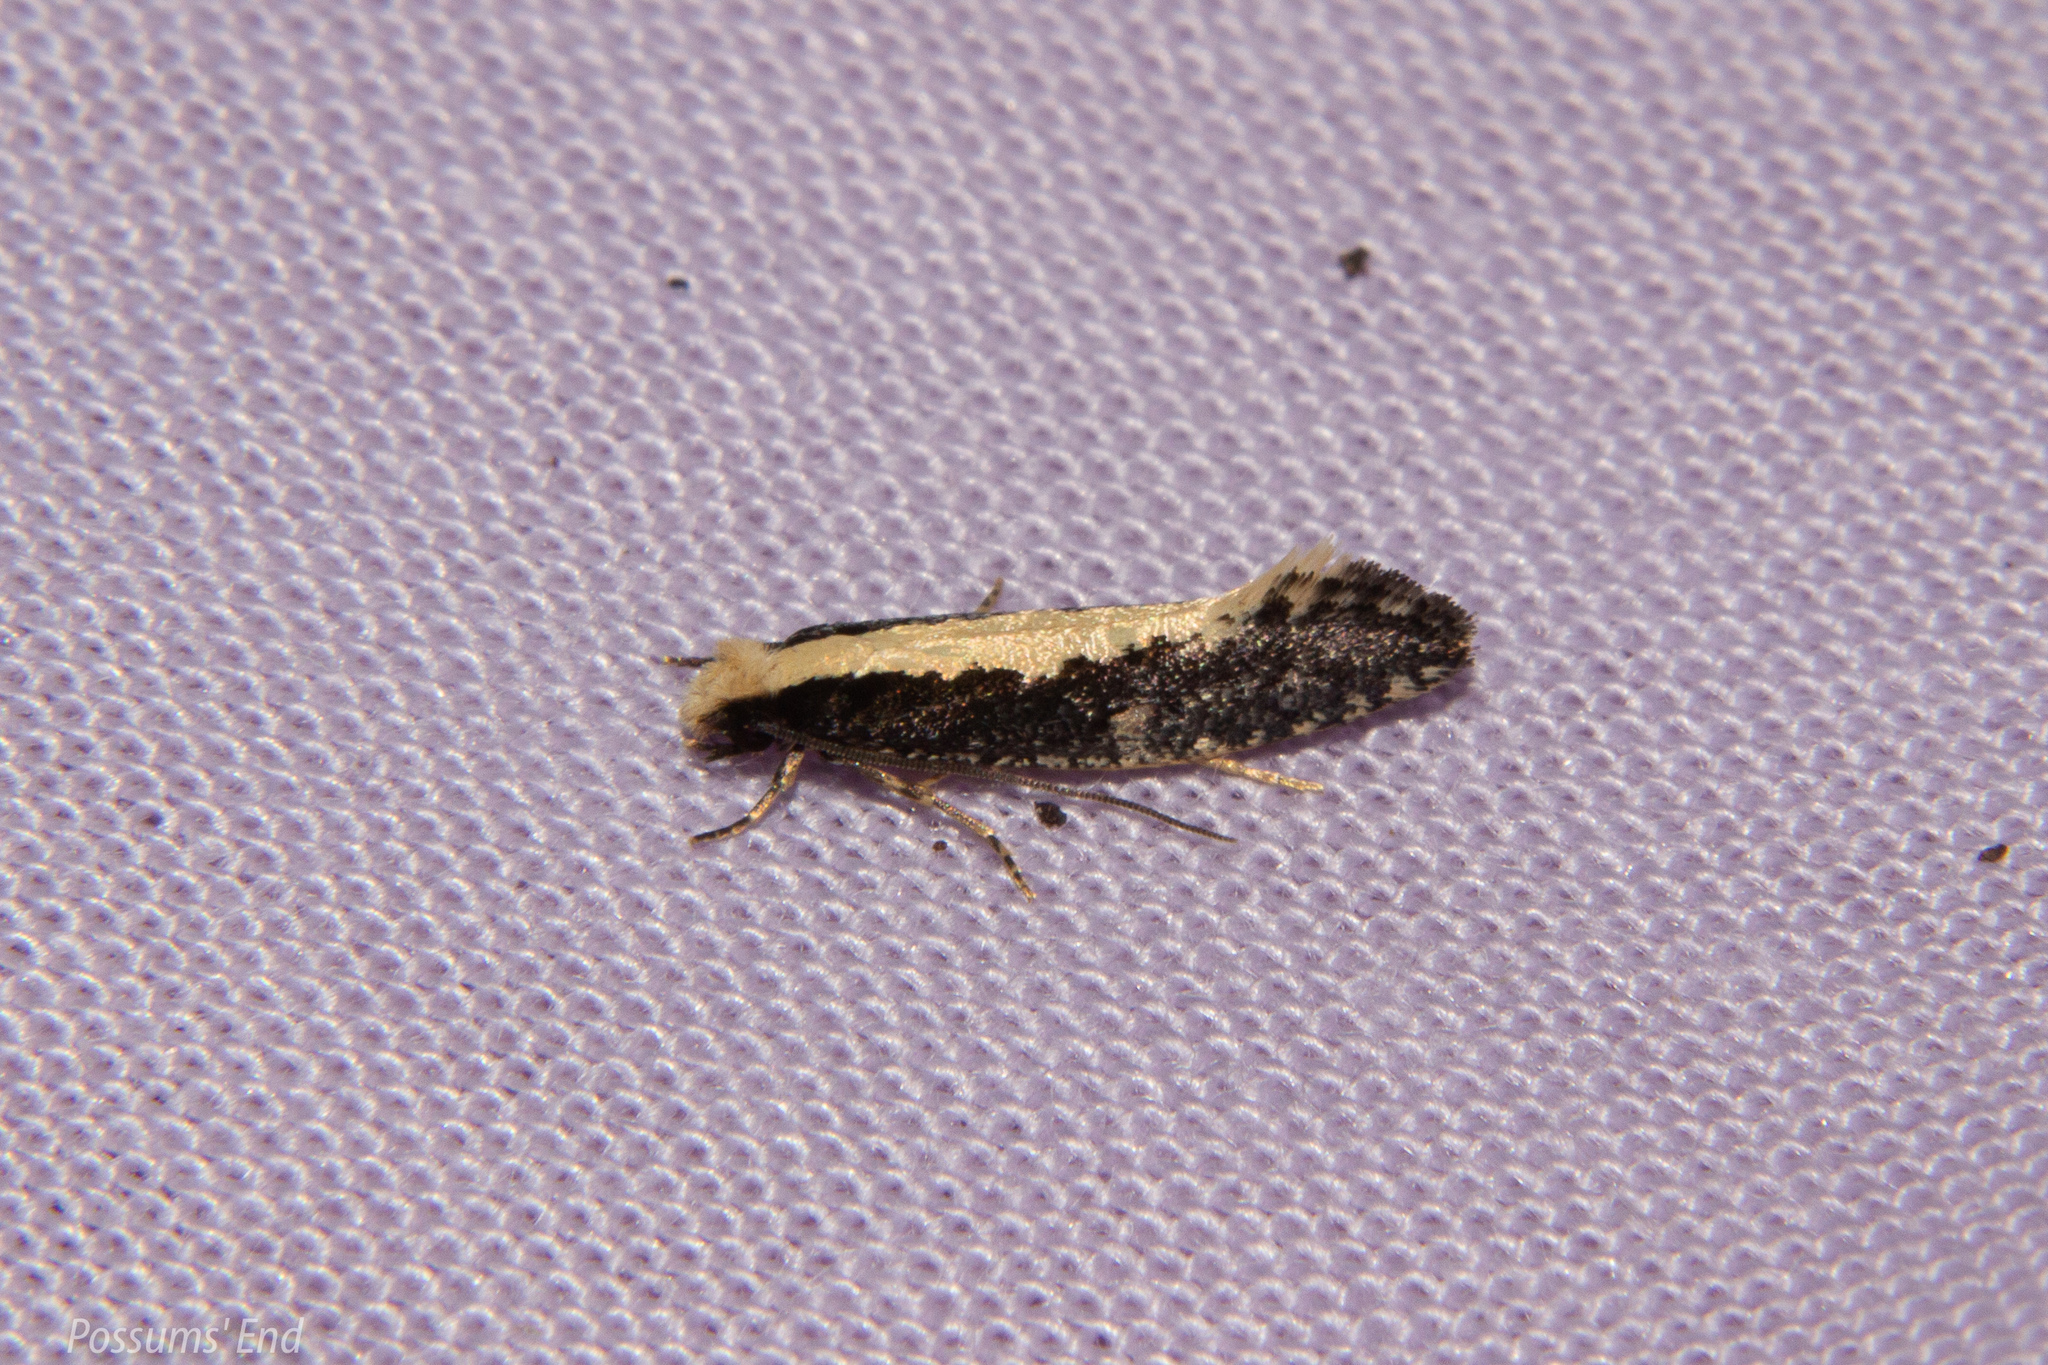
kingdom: Animalia
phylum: Arthropoda
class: Insecta
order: Lepidoptera
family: Tineidae
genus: Monopis
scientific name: Monopis crocicapitella
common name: Moth
